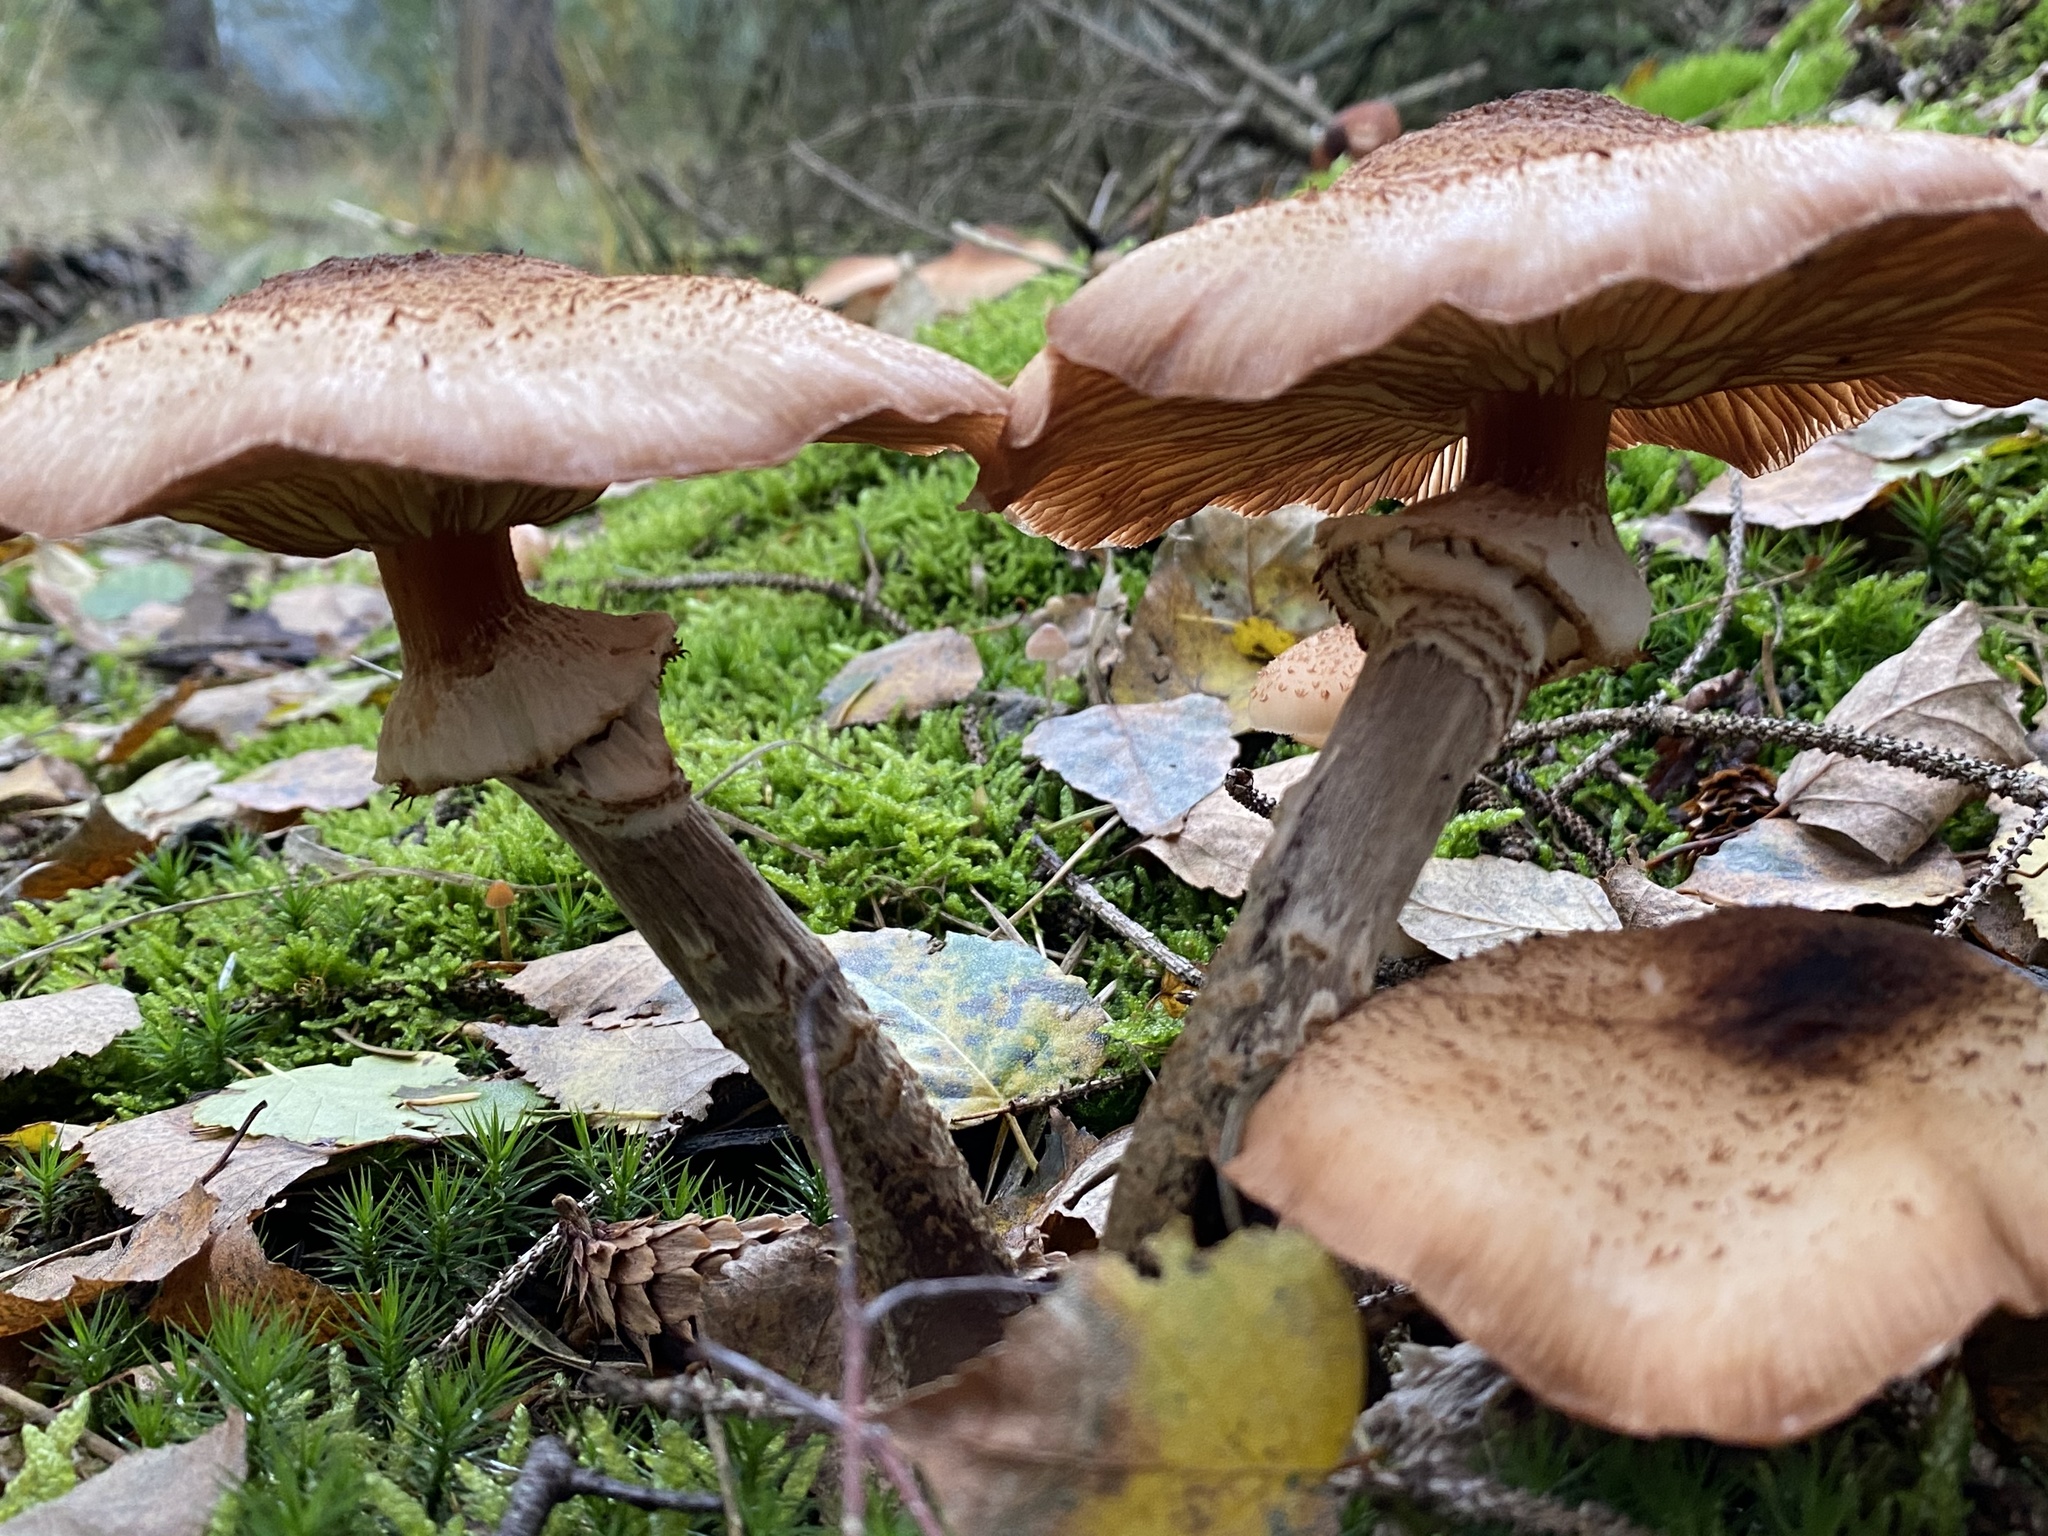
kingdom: Fungi
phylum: Basidiomycota
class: Agaricomycetes
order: Agaricales
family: Physalacriaceae
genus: Armillaria
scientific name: Armillaria ostoyae
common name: Dark honey fungus
